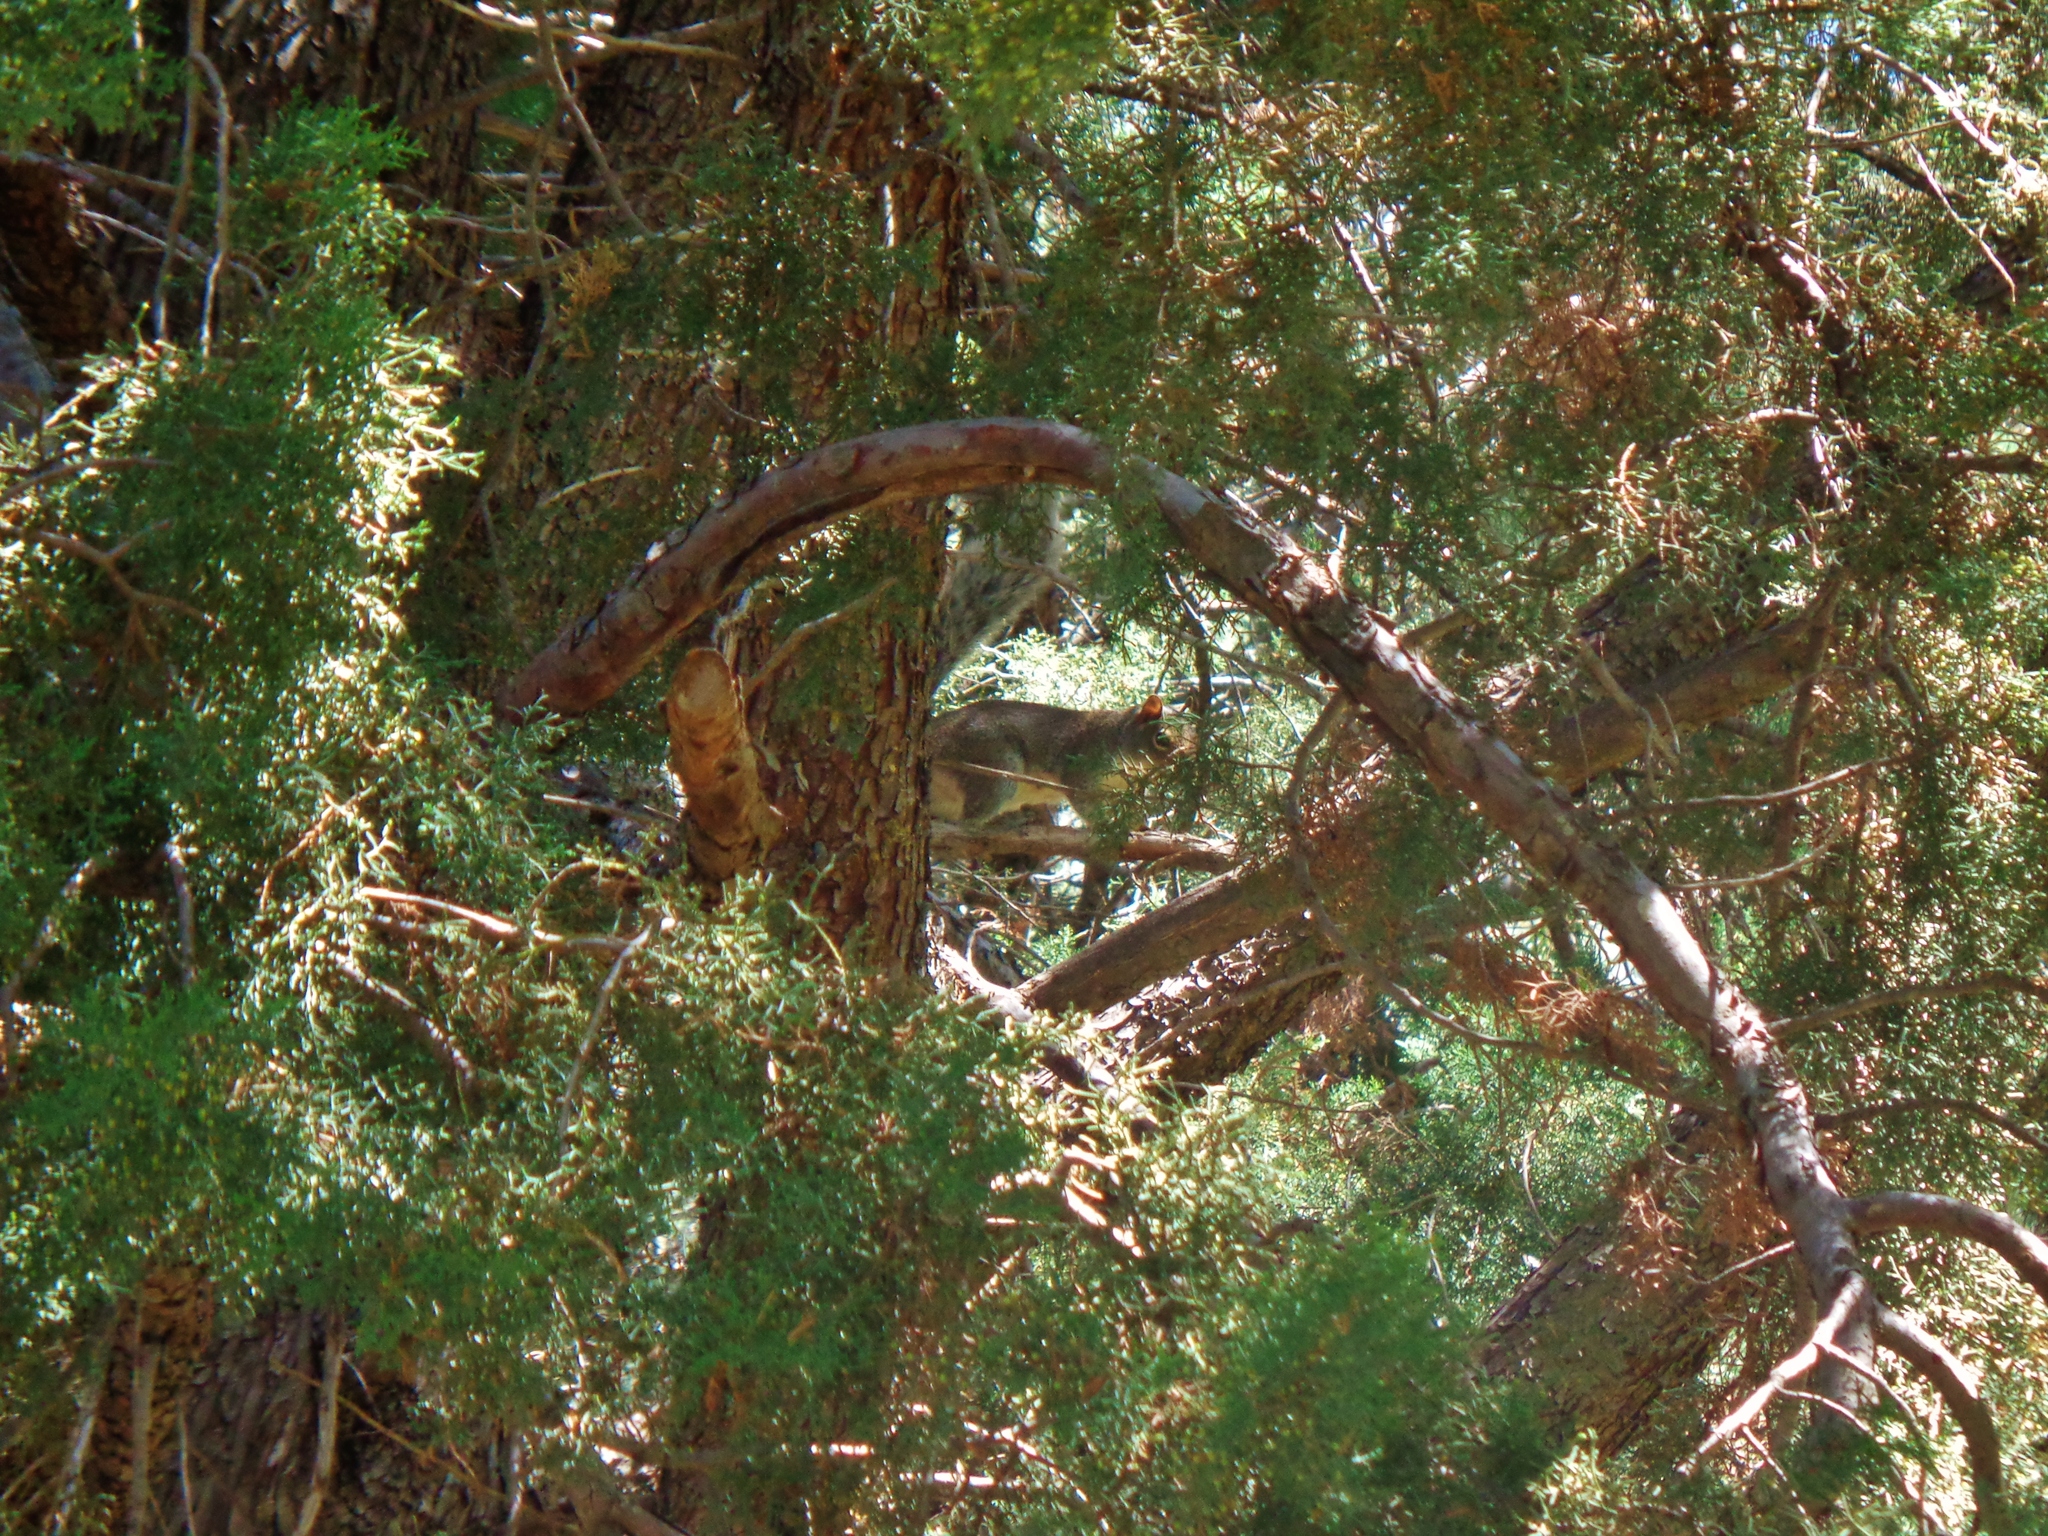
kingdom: Animalia
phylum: Chordata
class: Mammalia
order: Rodentia
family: Sciuridae
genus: Sciurus
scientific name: Sciurus alleni
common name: Allen's squirrel
